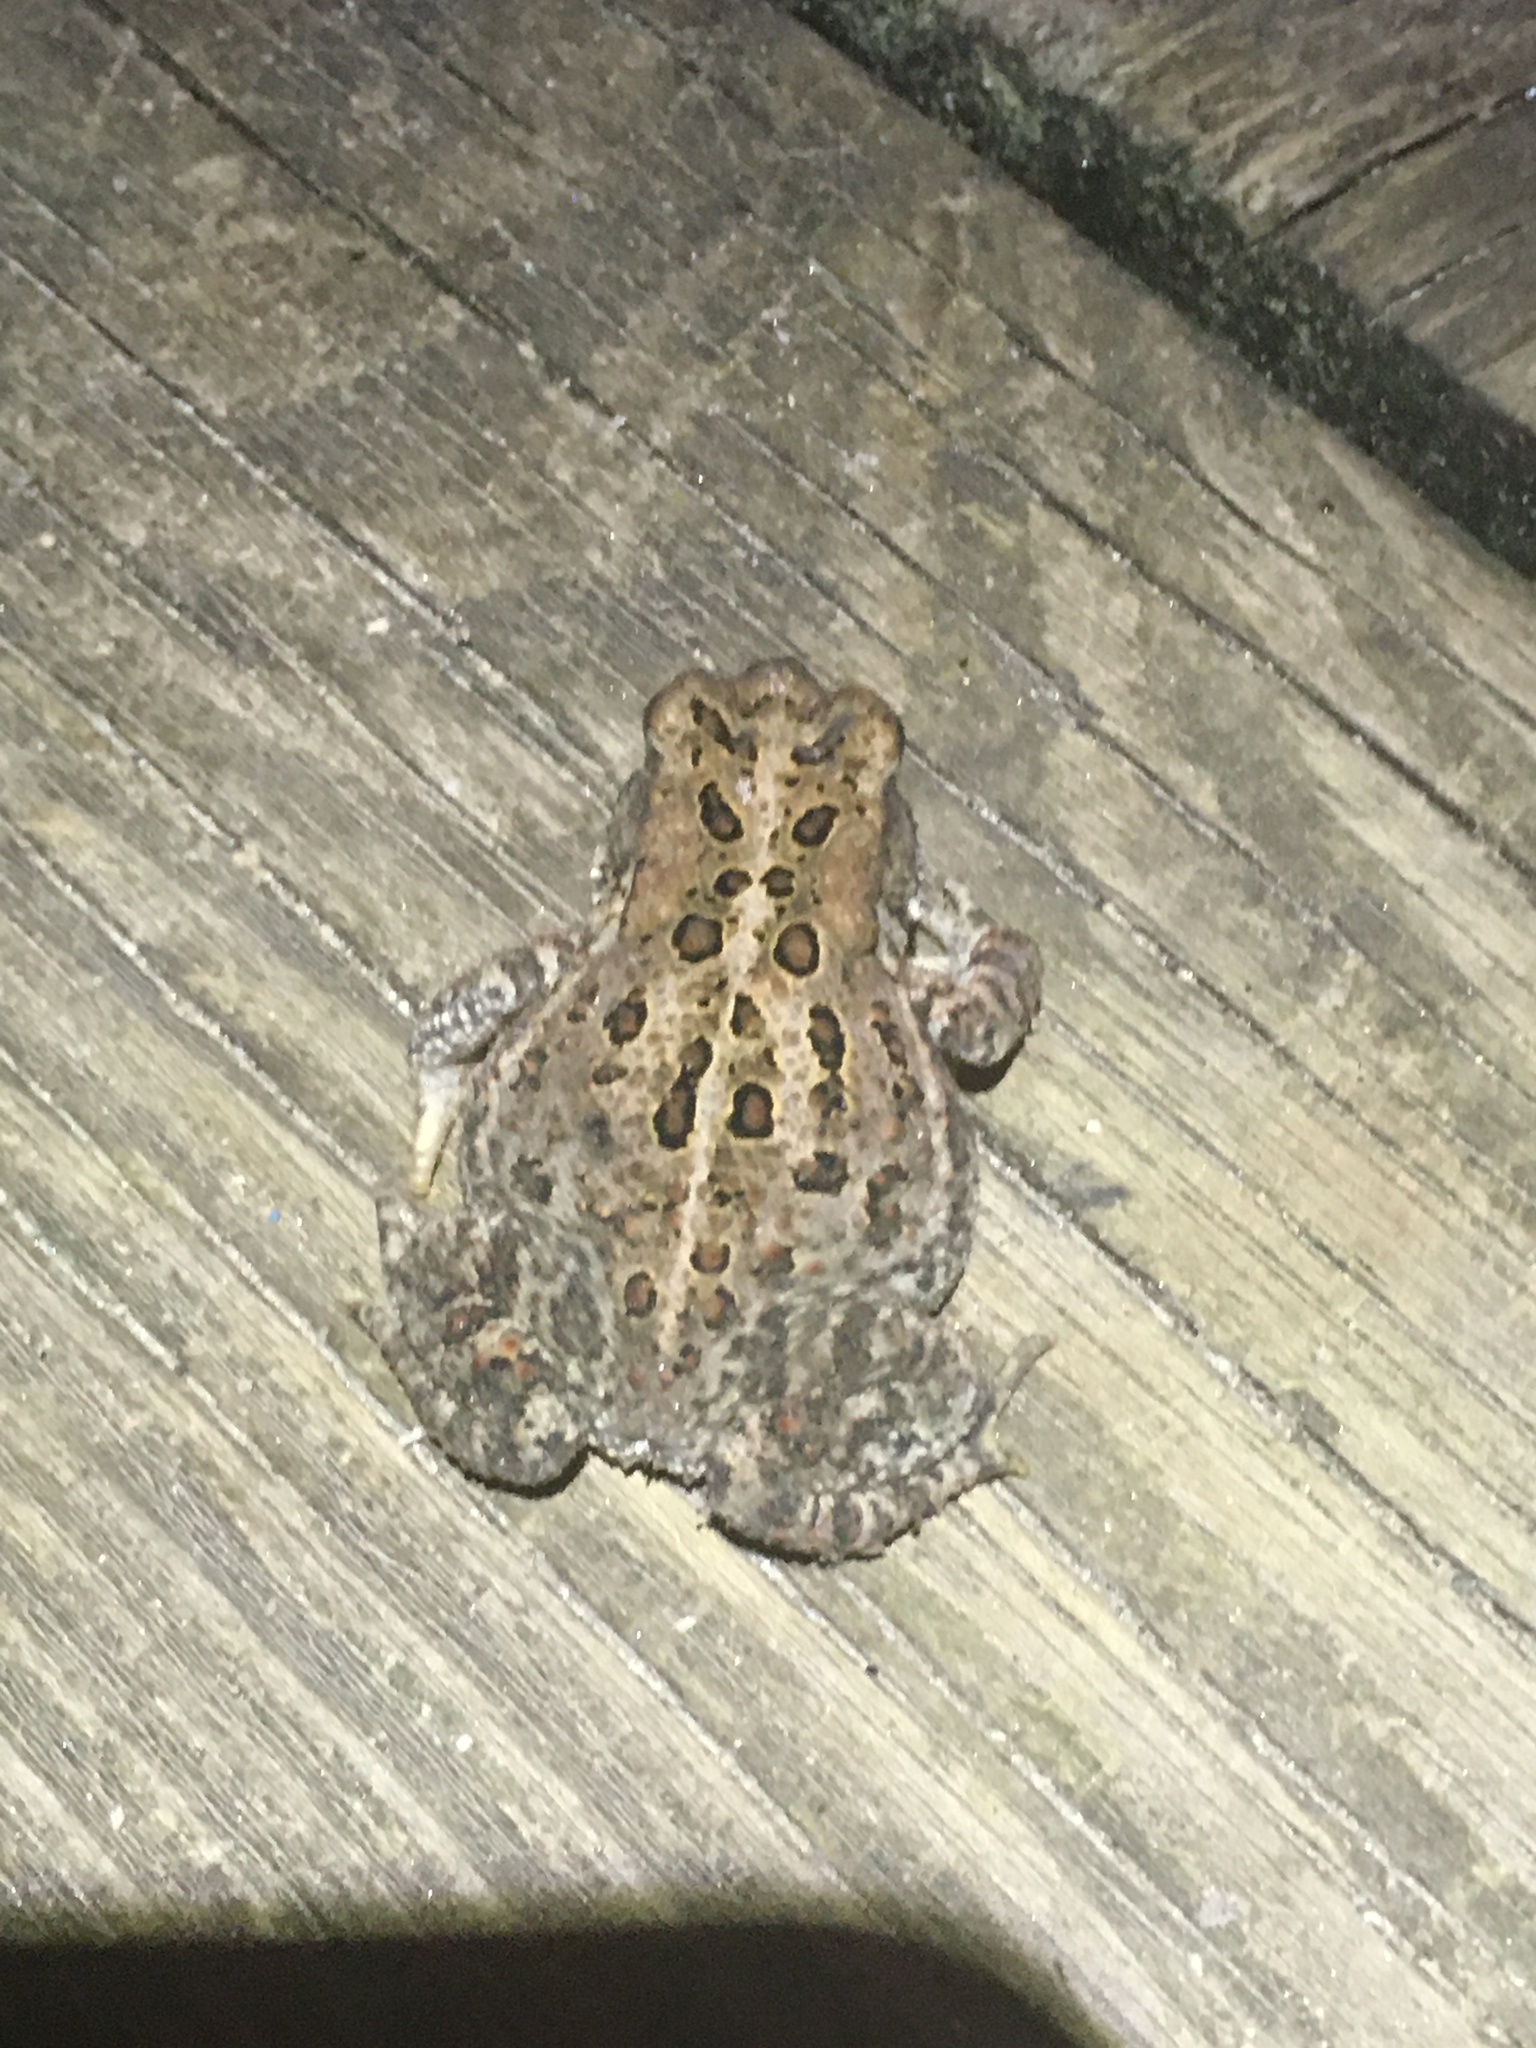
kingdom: Animalia
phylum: Chordata
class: Amphibia
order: Anura
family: Bufonidae
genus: Anaxyrus
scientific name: Anaxyrus americanus
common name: American toad
